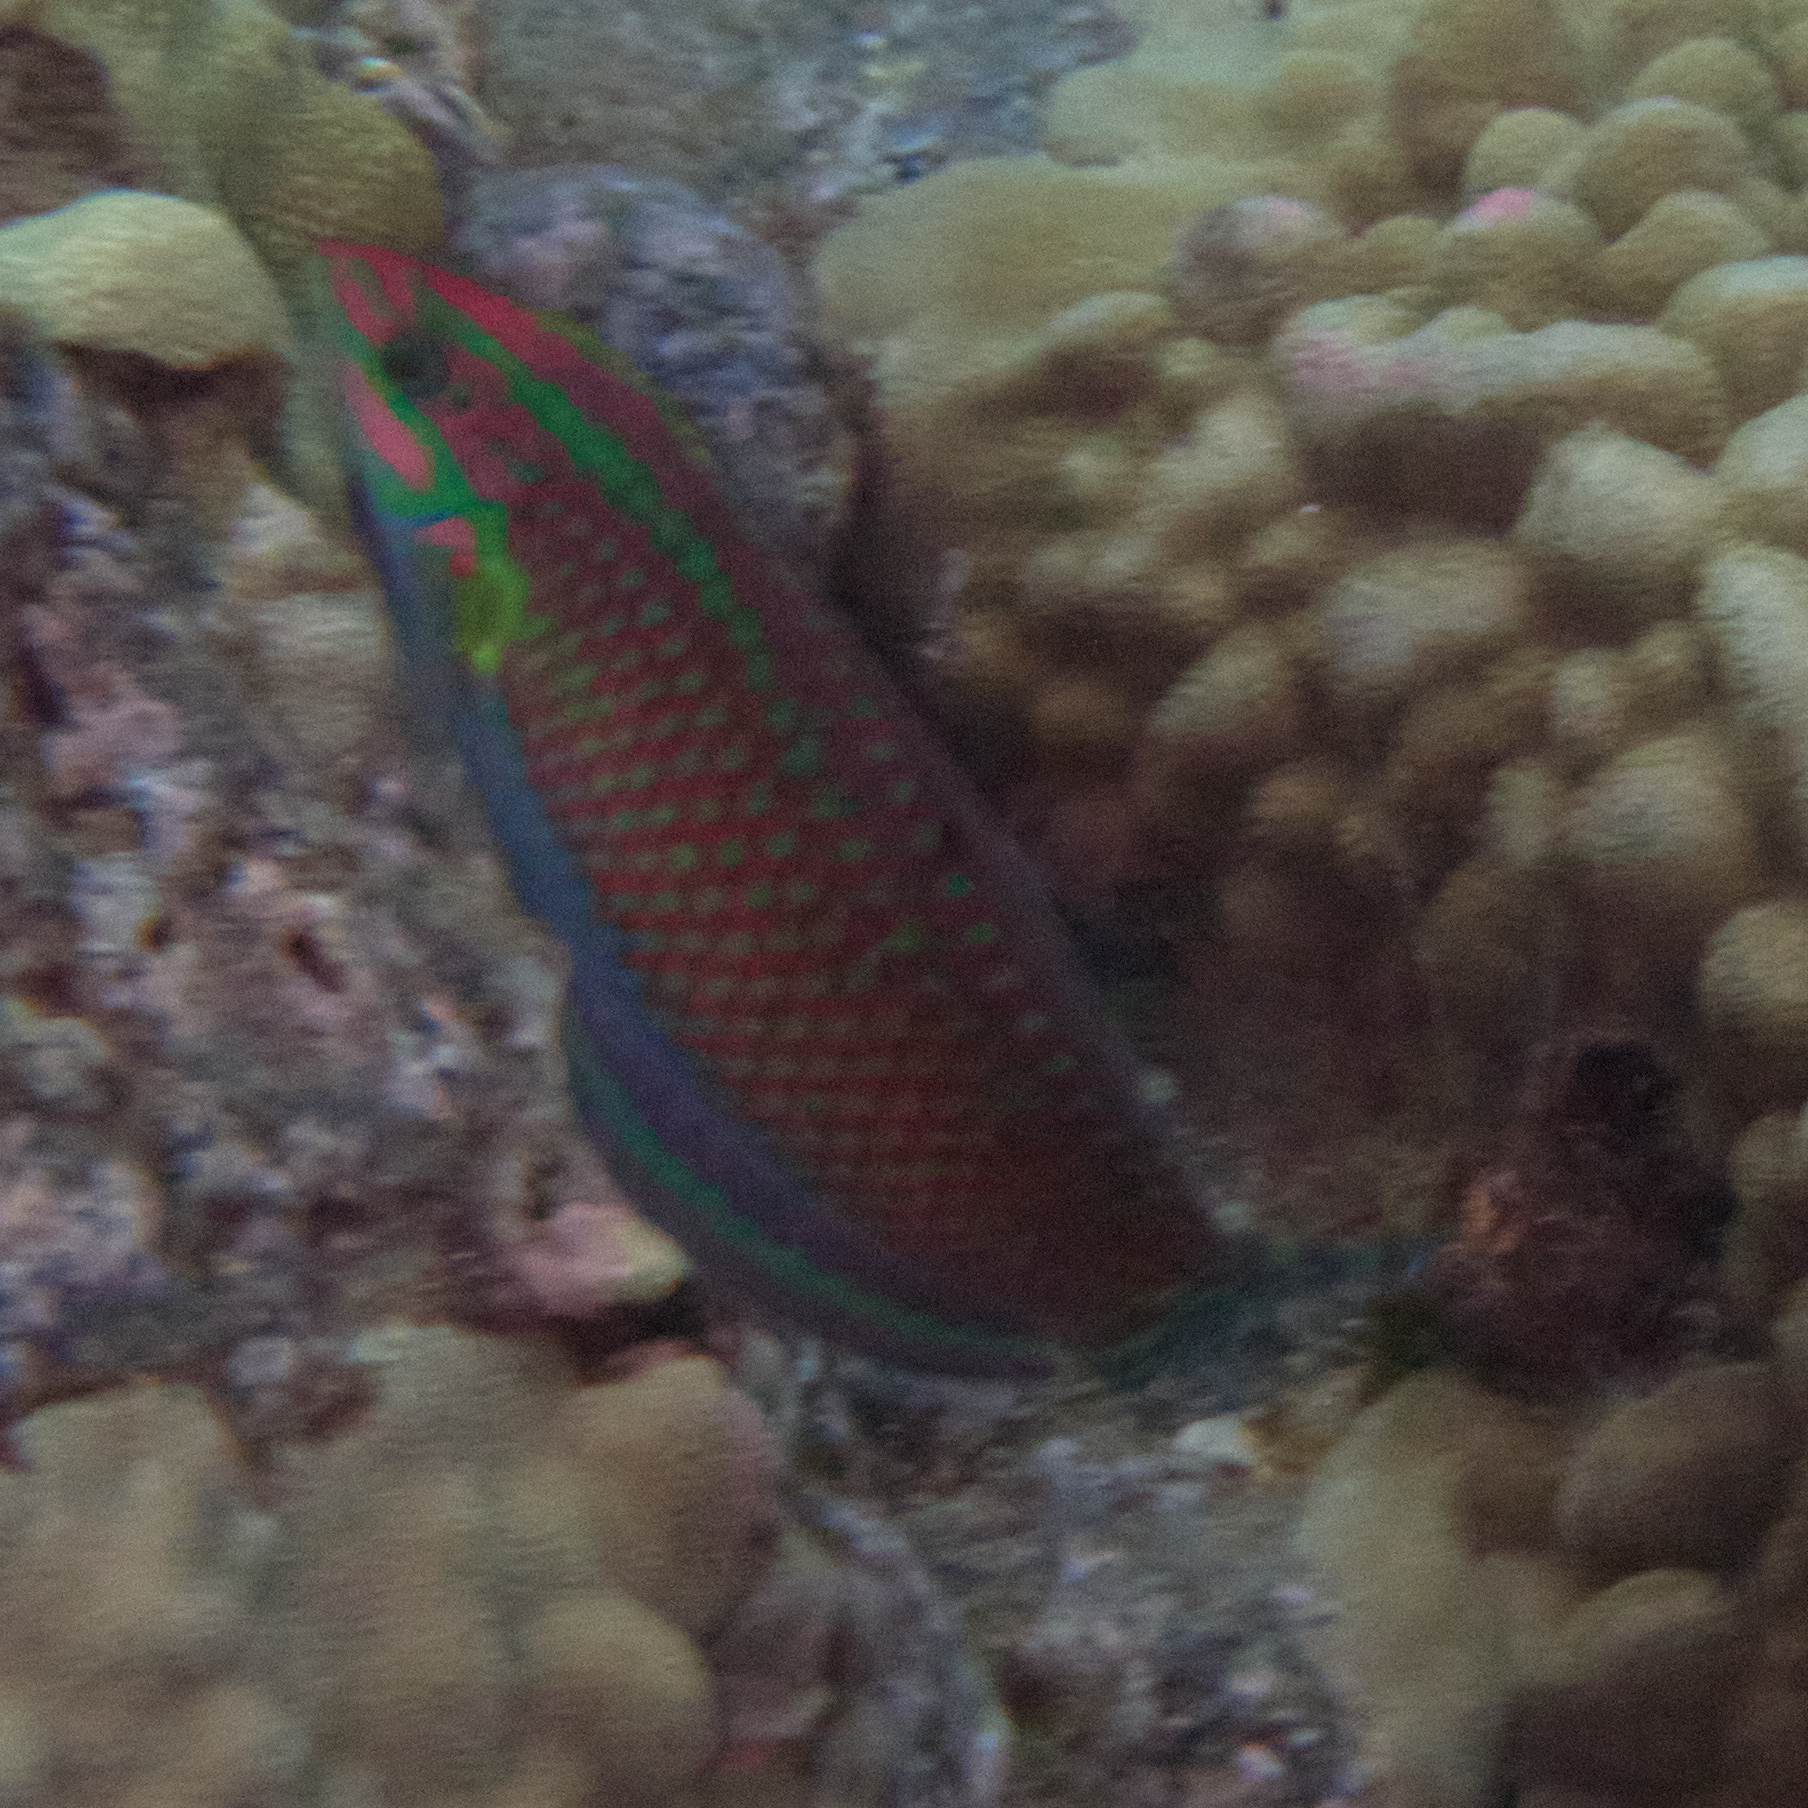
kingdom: Animalia
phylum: Chordata
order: Perciformes
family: Labridae
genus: Halichoeres
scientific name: Halichoeres ornatissimus
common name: Ornamented wrasse
